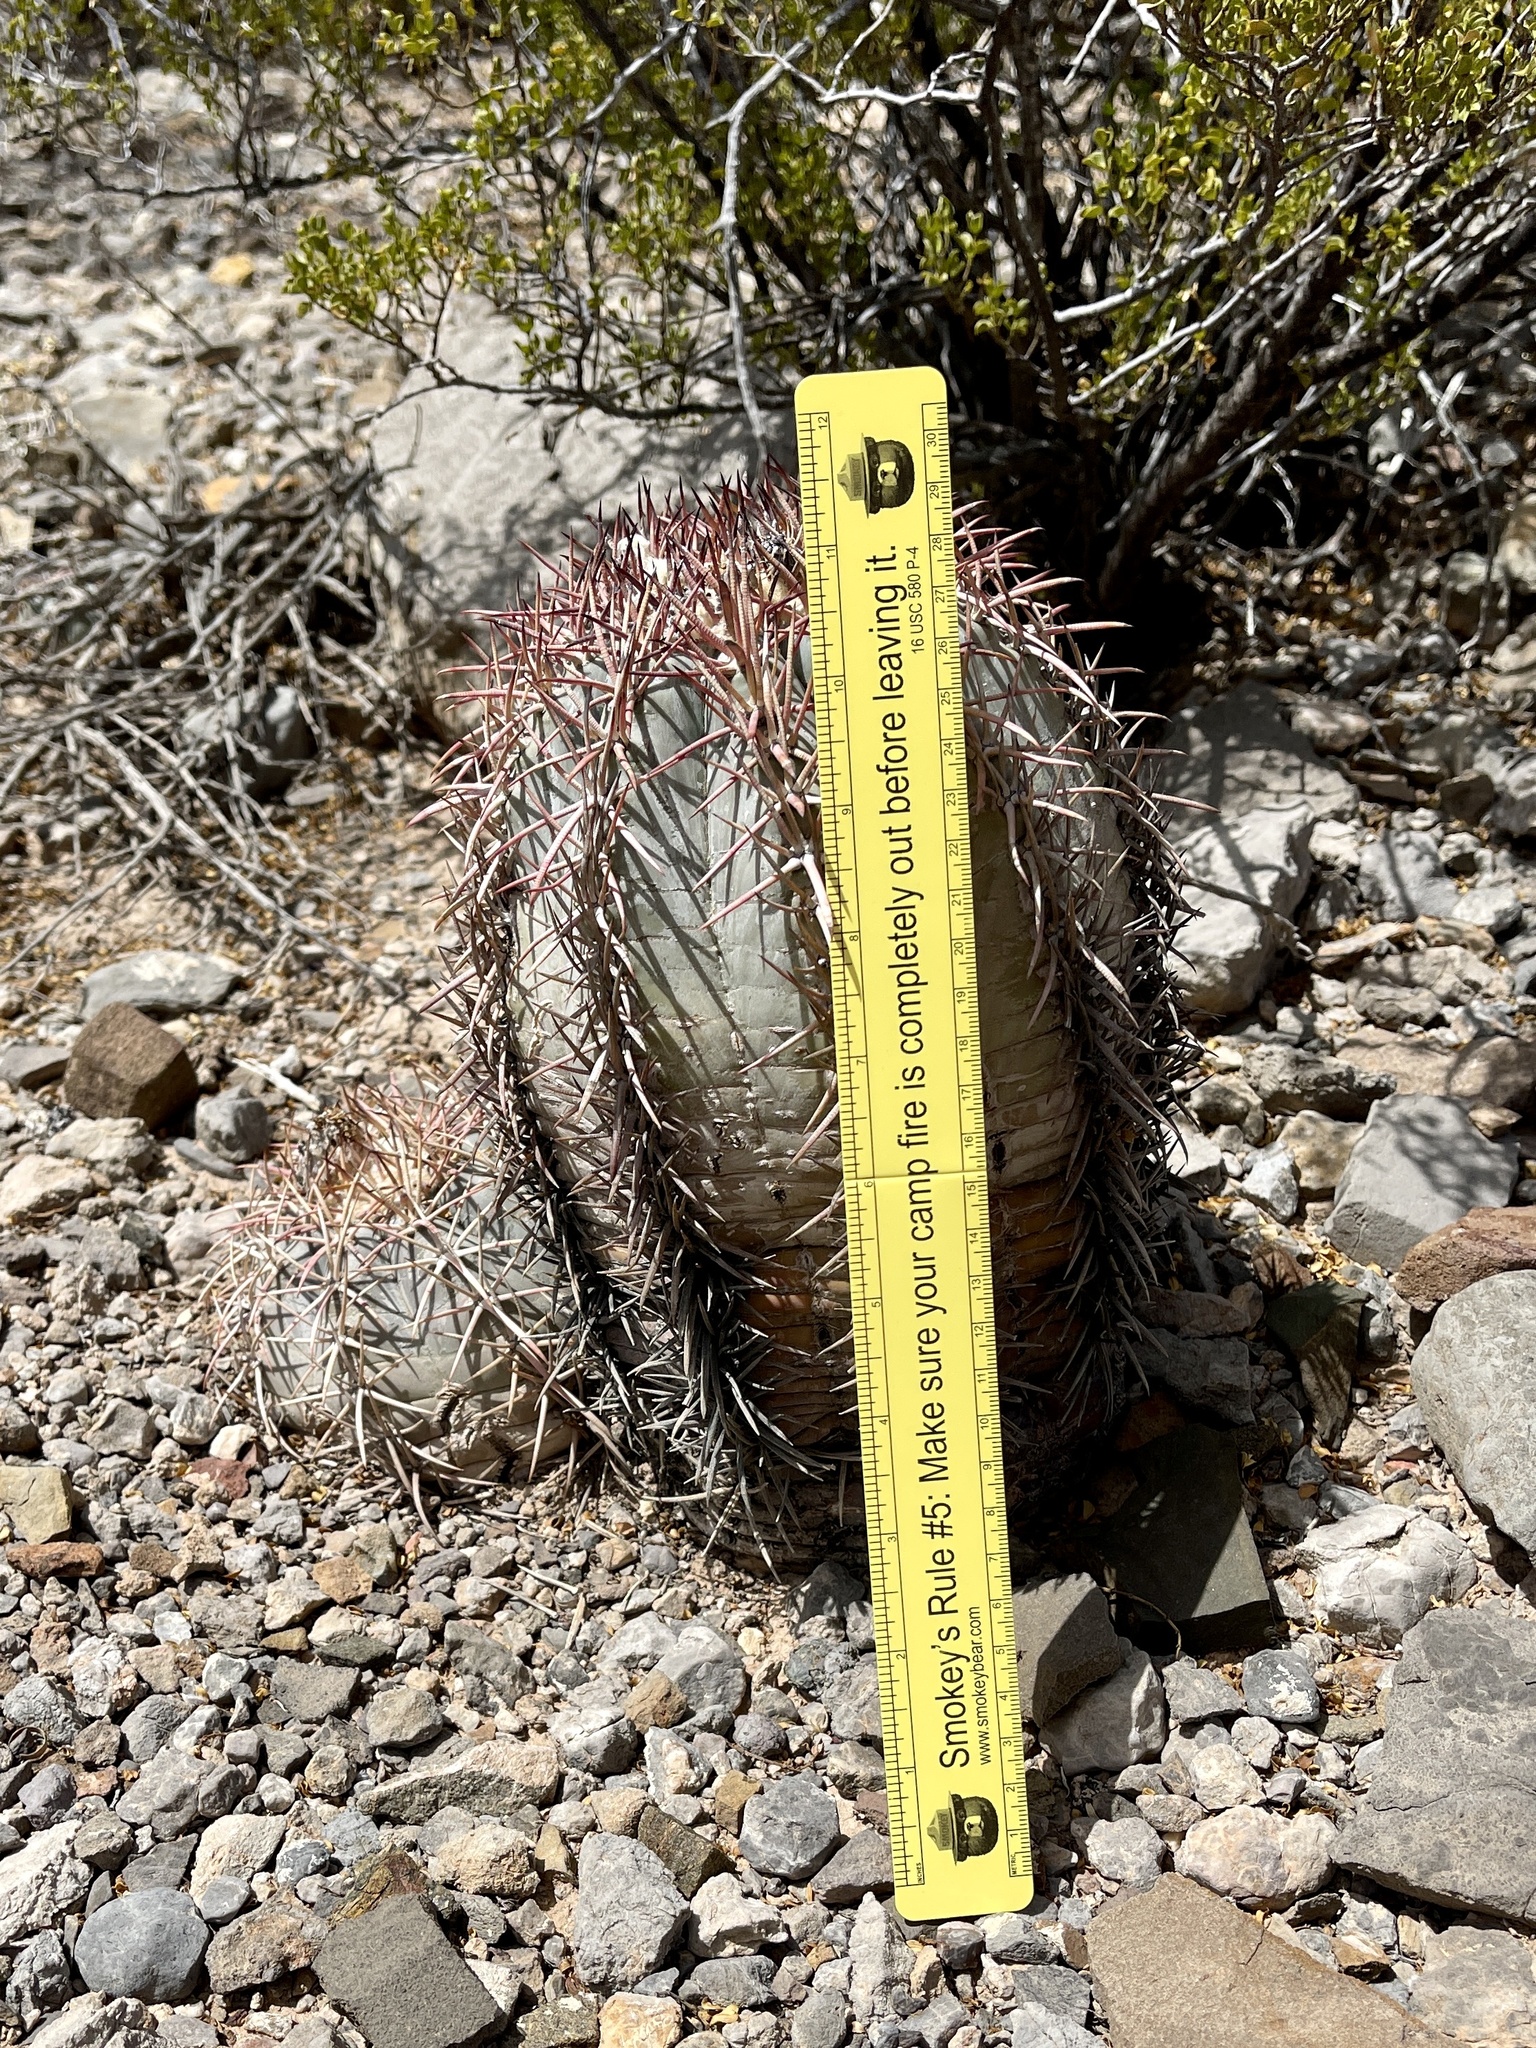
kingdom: Plantae
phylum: Tracheophyta
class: Magnoliopsida
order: Caryophyllales
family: Cactaceae
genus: Echinocactus
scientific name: Echinocactus horizonthalonius
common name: Devilshead
